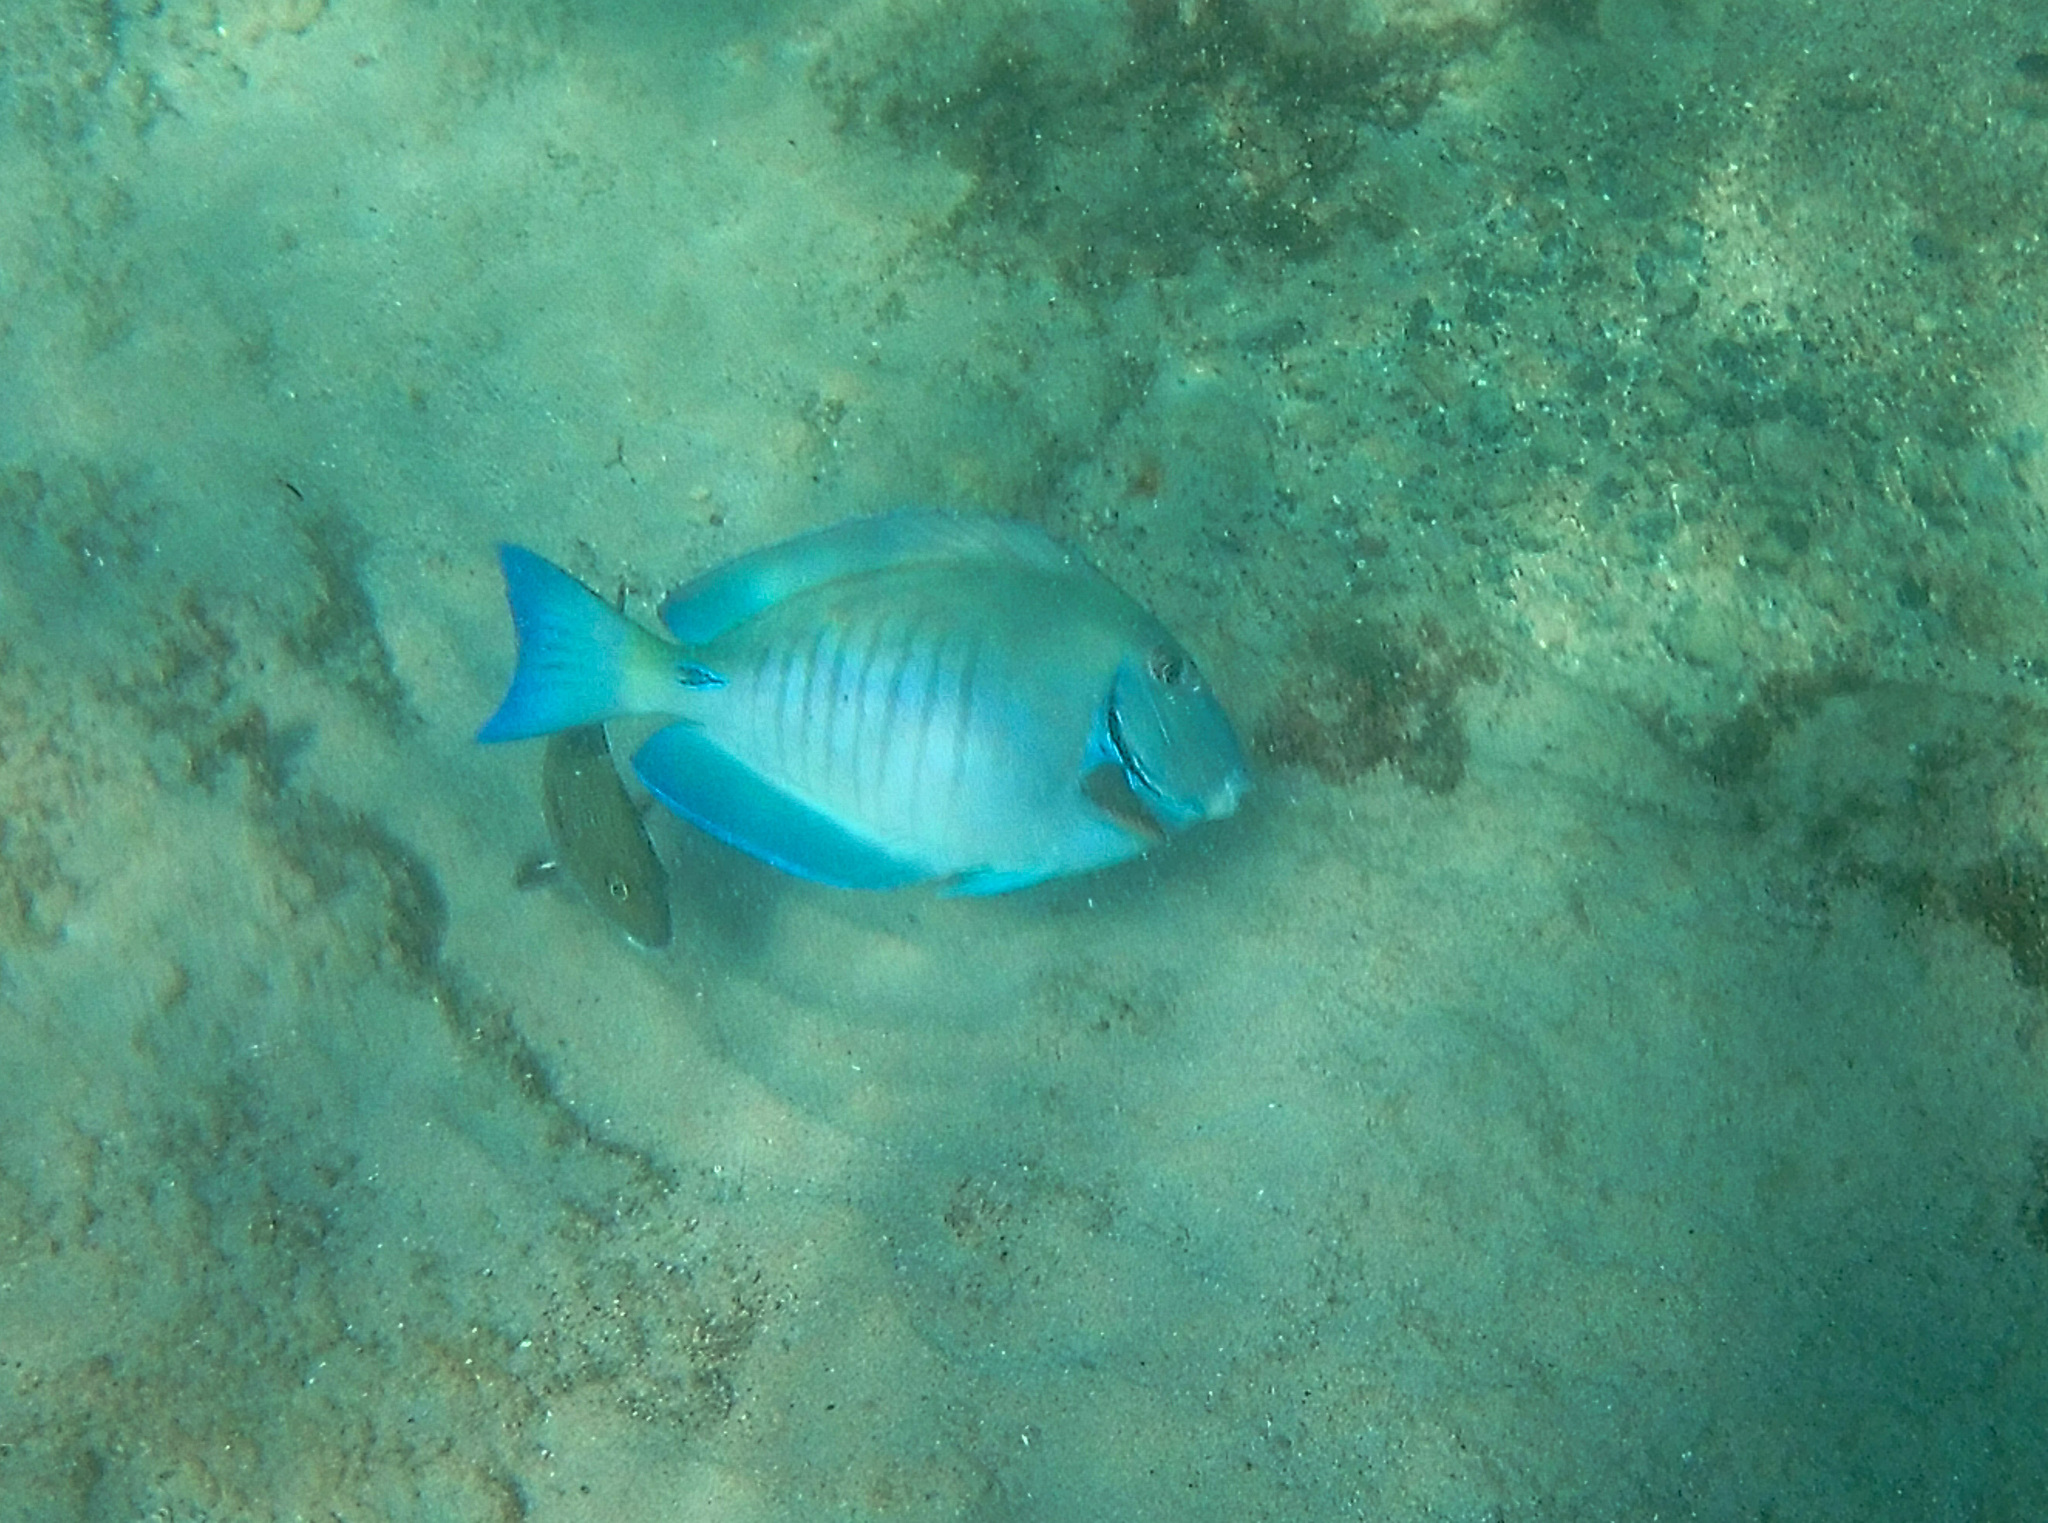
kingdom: Animalia
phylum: Chordata
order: Perciformes
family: Acanthuridae
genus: Acanthurus
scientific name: Acanthurus chirurgus
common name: Doctorfish
